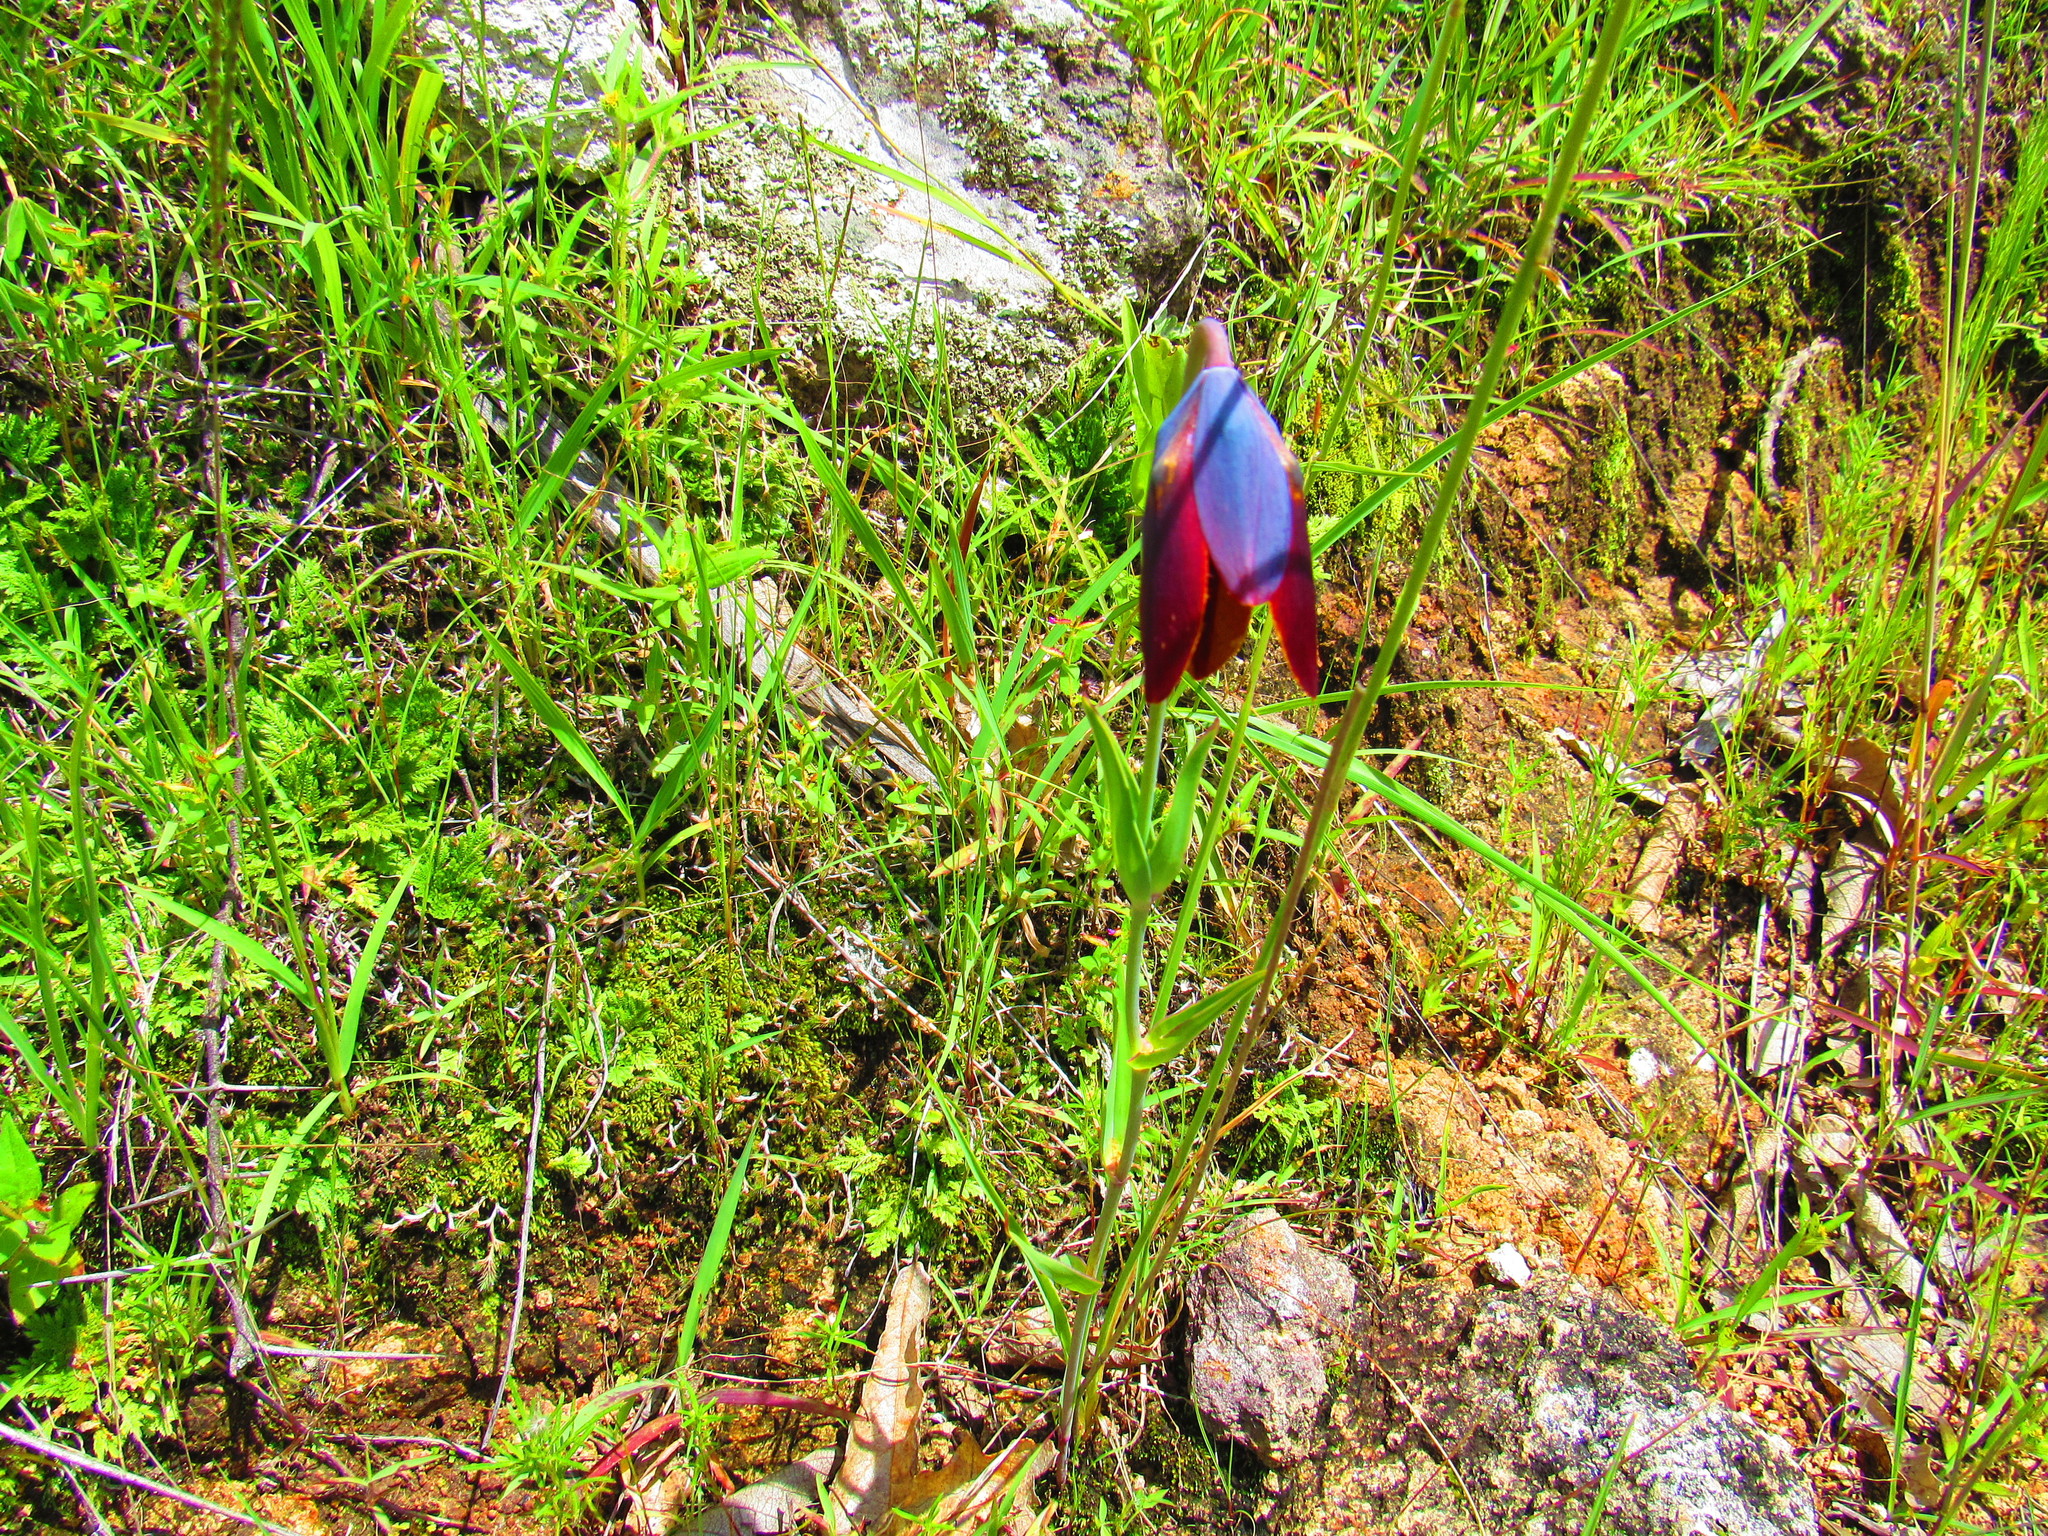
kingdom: Plantae
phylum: Tracheophyta
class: Liliopsida
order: Liliales
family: Liliaceae
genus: Calochortus
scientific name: Calochortus purpureus
